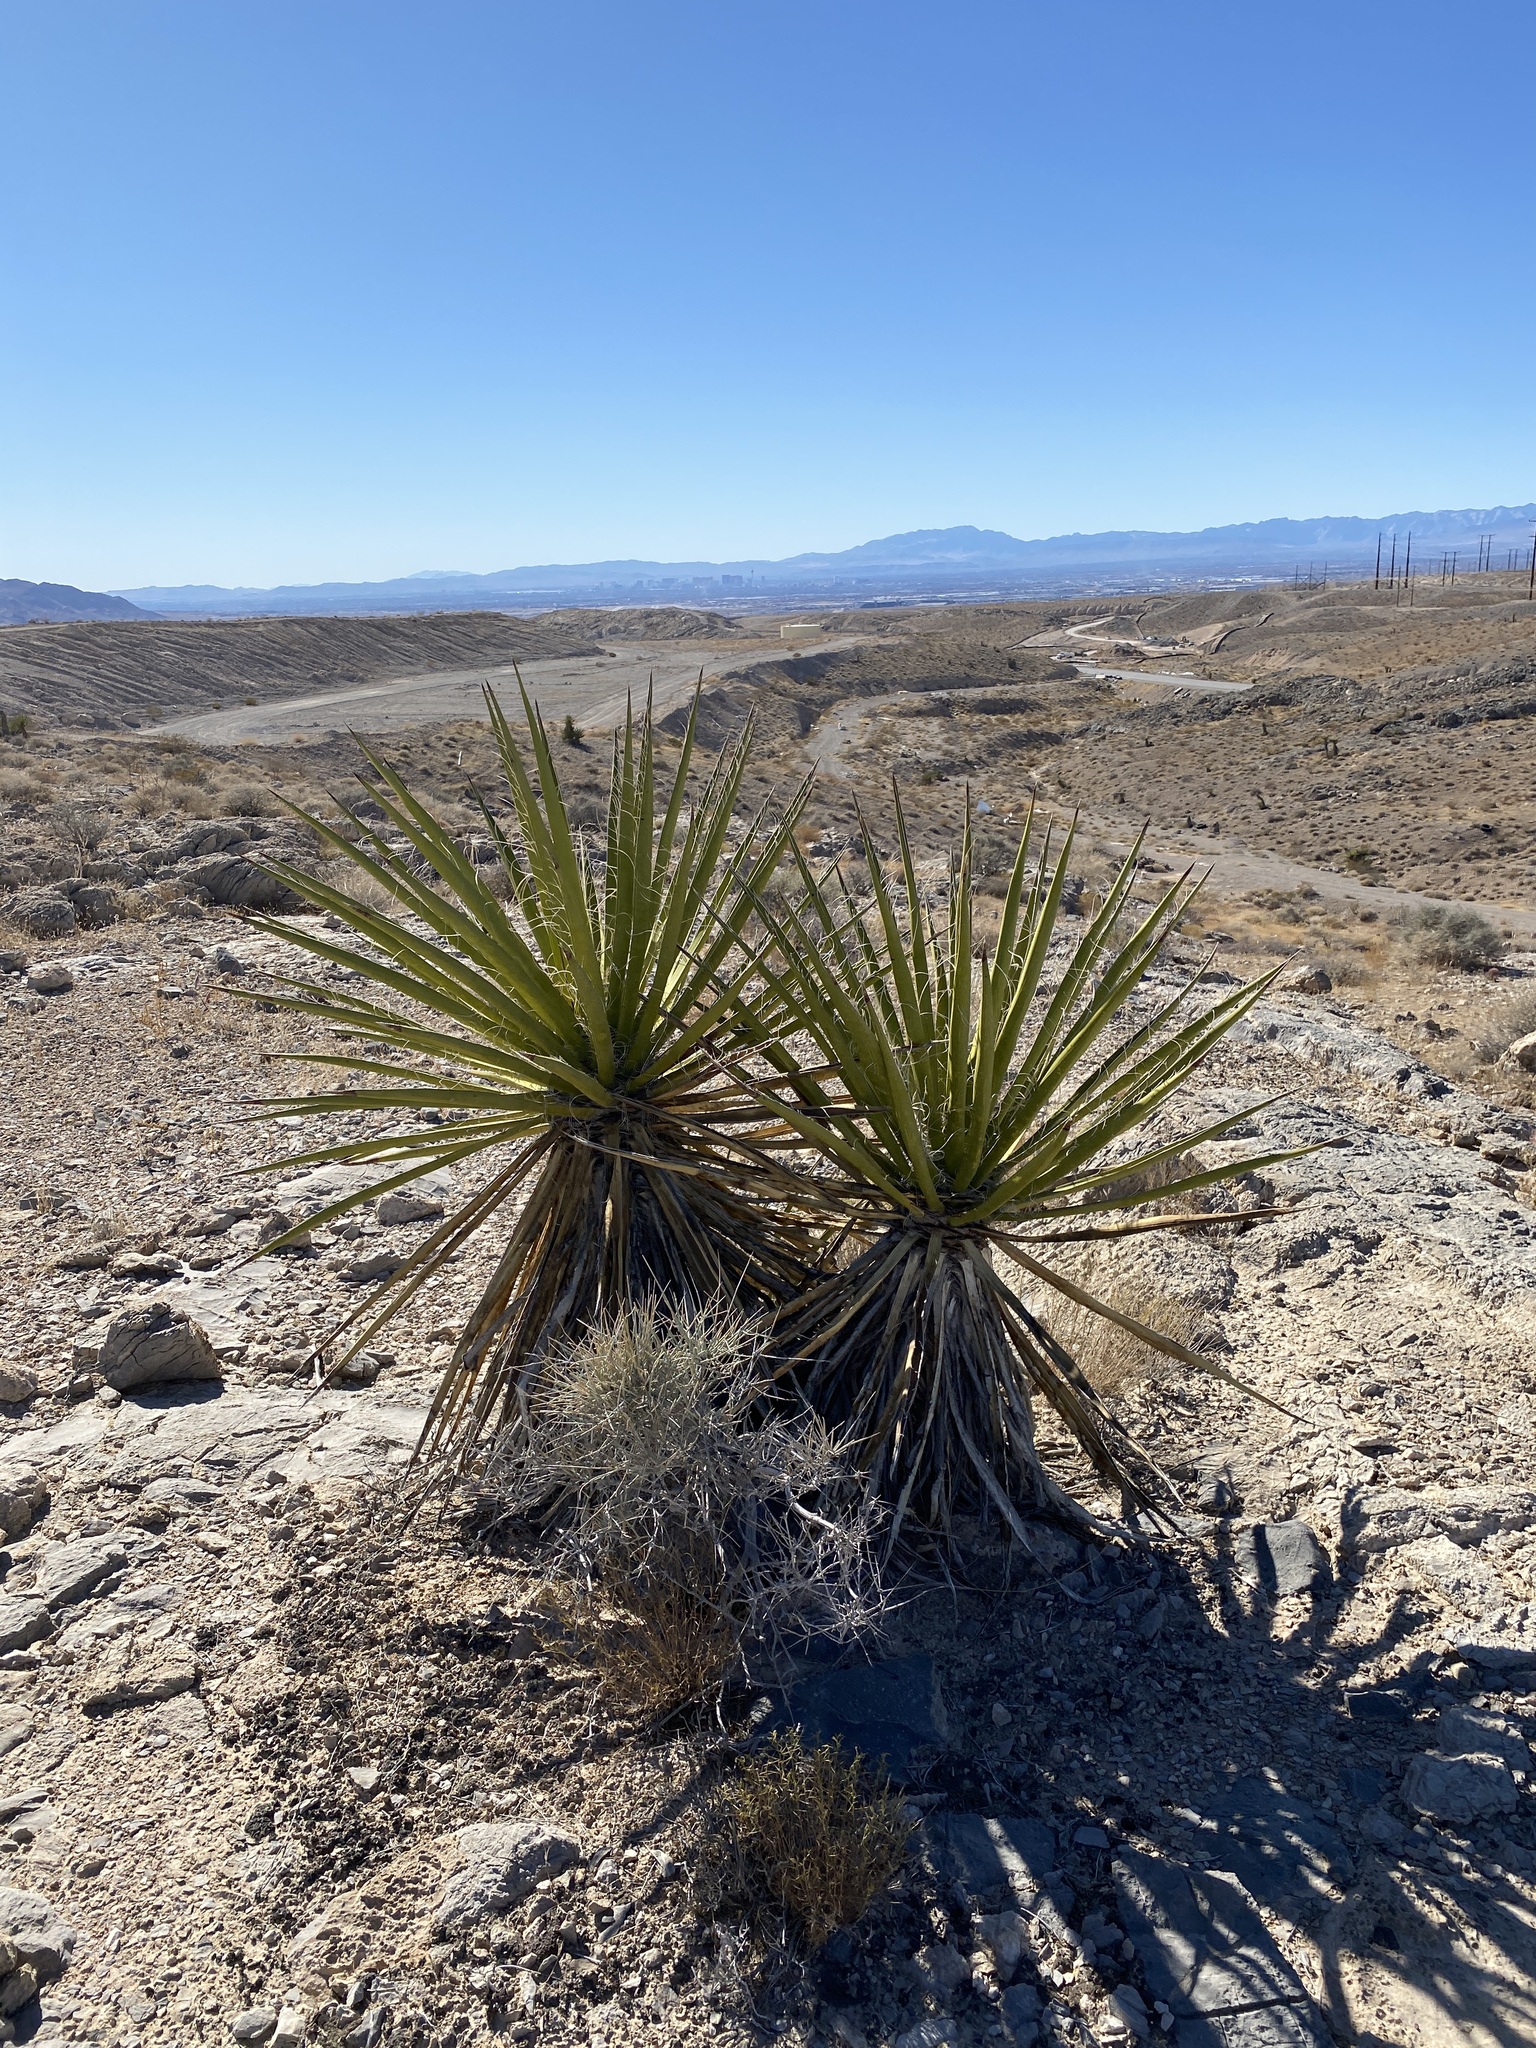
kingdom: Plantae
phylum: Tracheophyta
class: Liliopsida
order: Asparagales
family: Asparagaceae
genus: Yucca
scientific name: Yucca schidigera
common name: Mojave yucca
